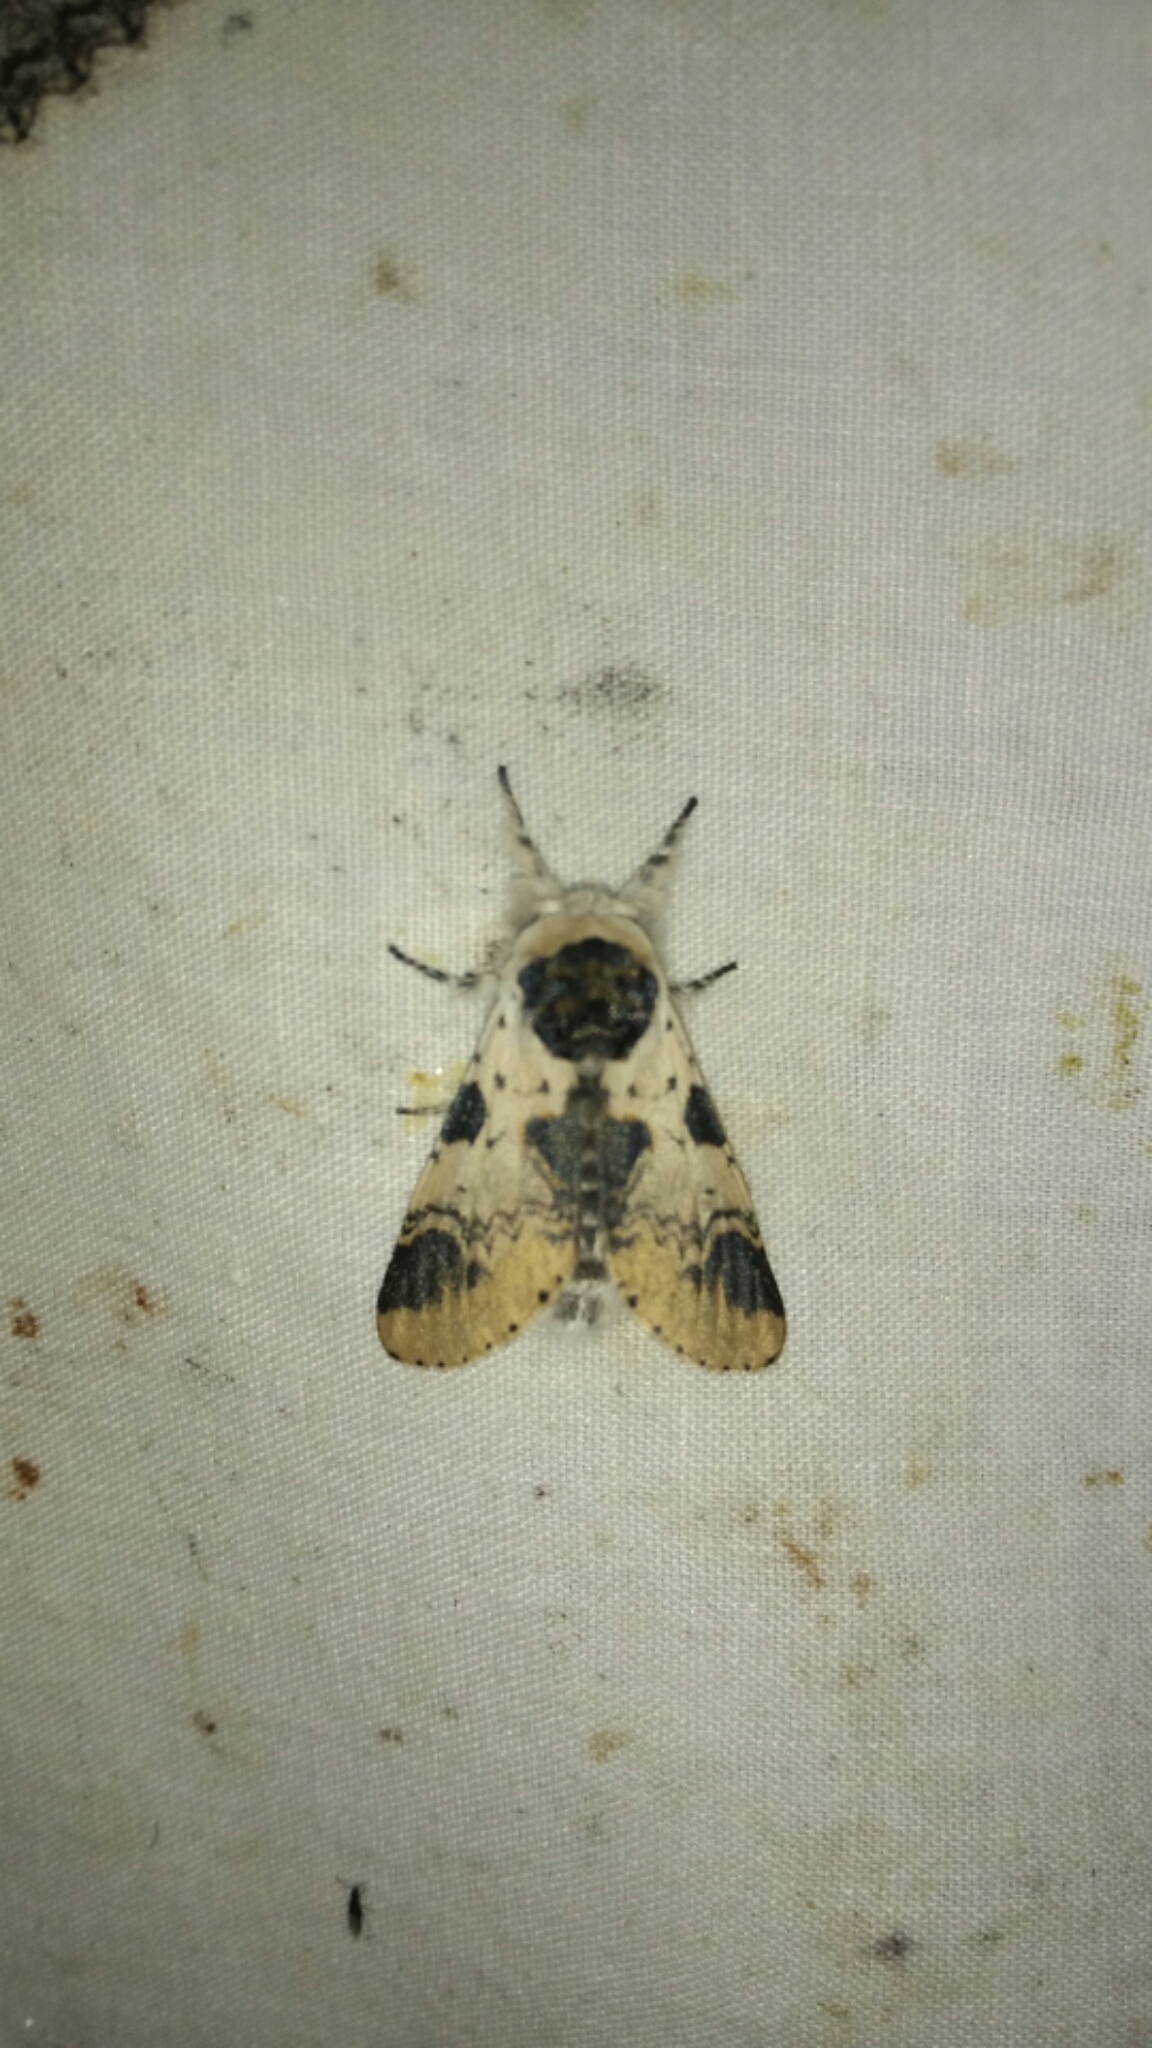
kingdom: Animalia
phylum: Arthropoda
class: Insecta
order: Lepidoptera
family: Notodontidae
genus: Furcula
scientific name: Furcula modesta
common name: Modest furcula moth
